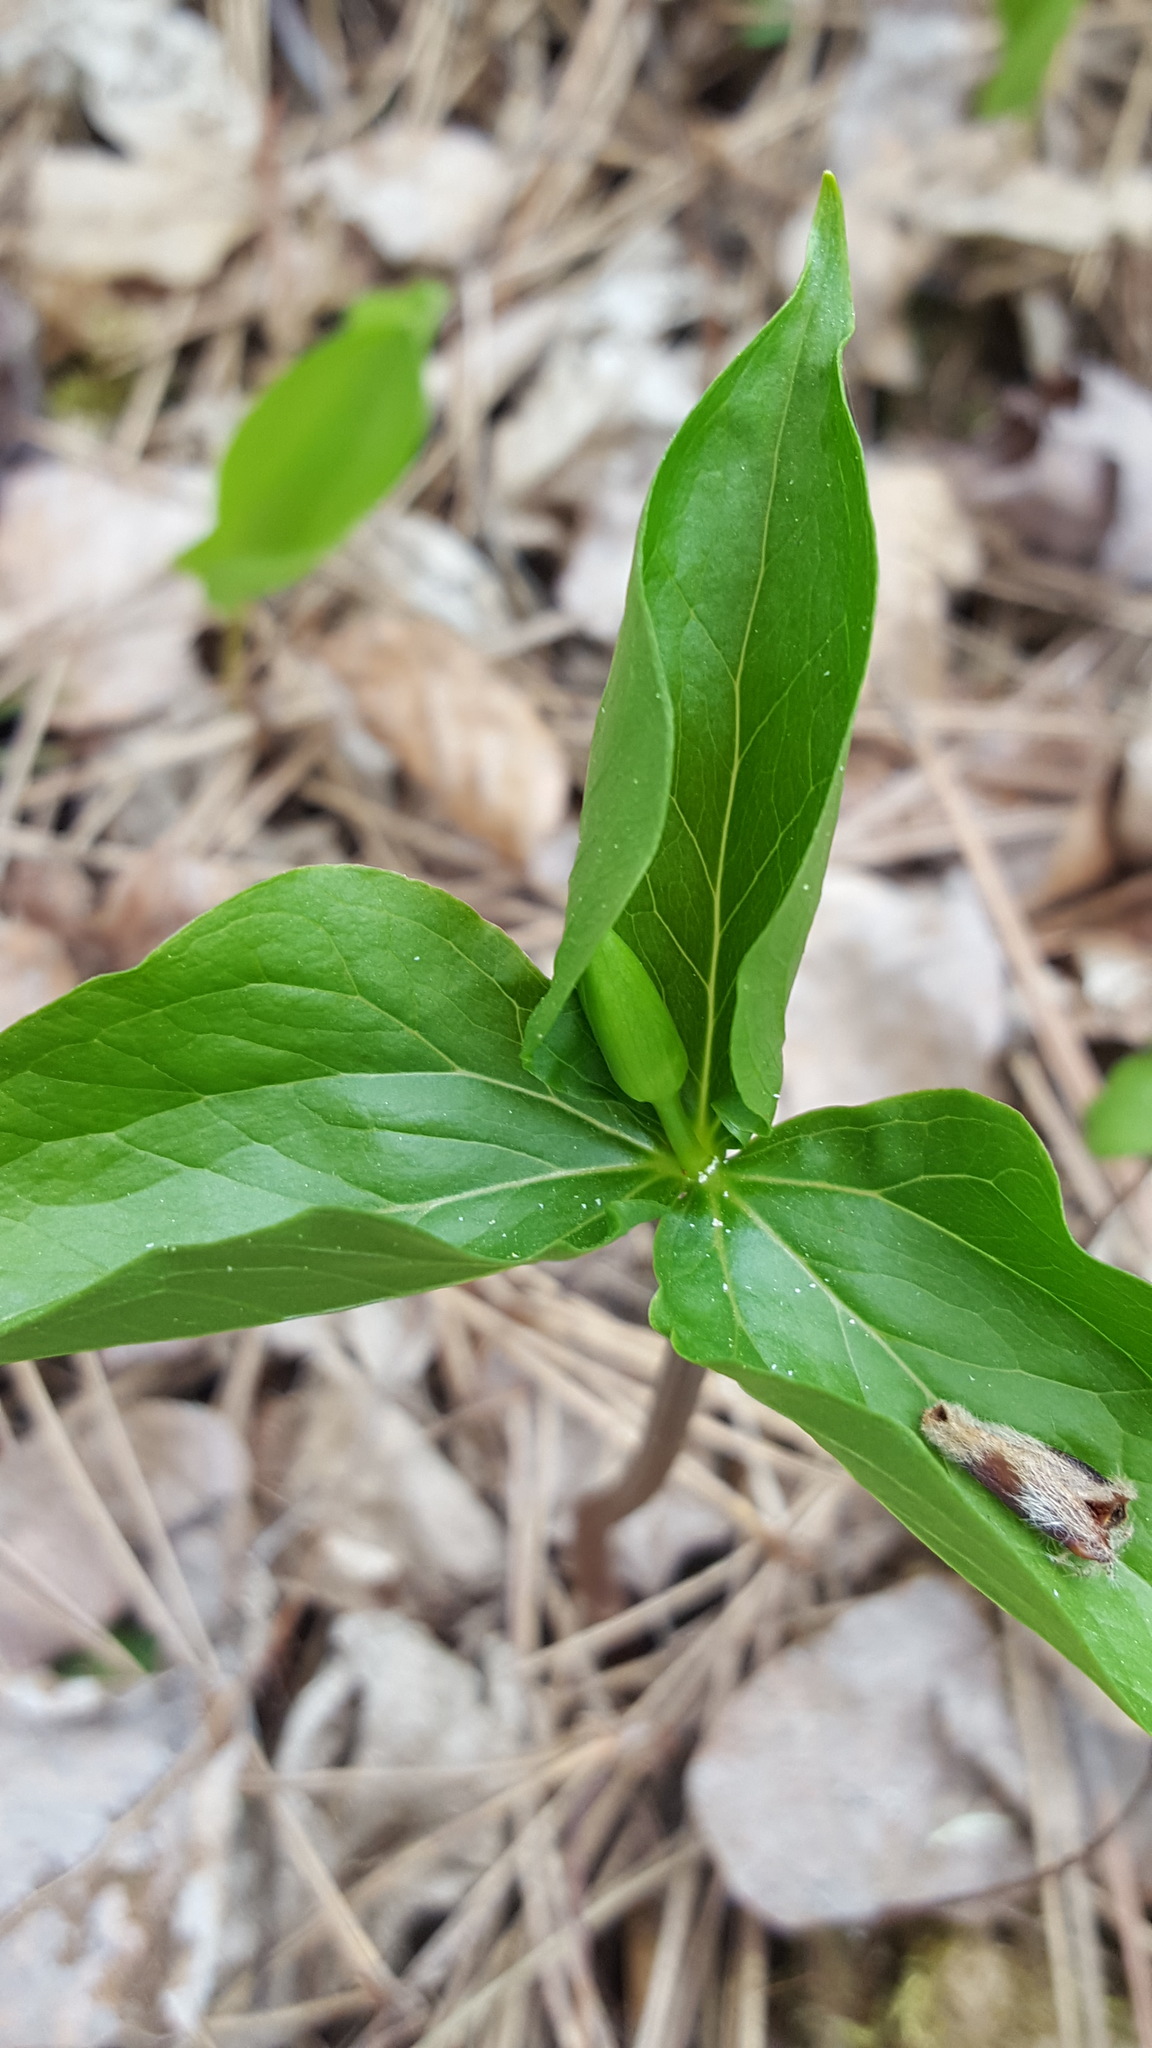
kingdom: Plantae
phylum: Tracheophyta
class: Liliopsida
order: Liliales
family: Melanthiaceae
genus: Trillium
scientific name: Trillium cernuum
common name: Nodding trillium
